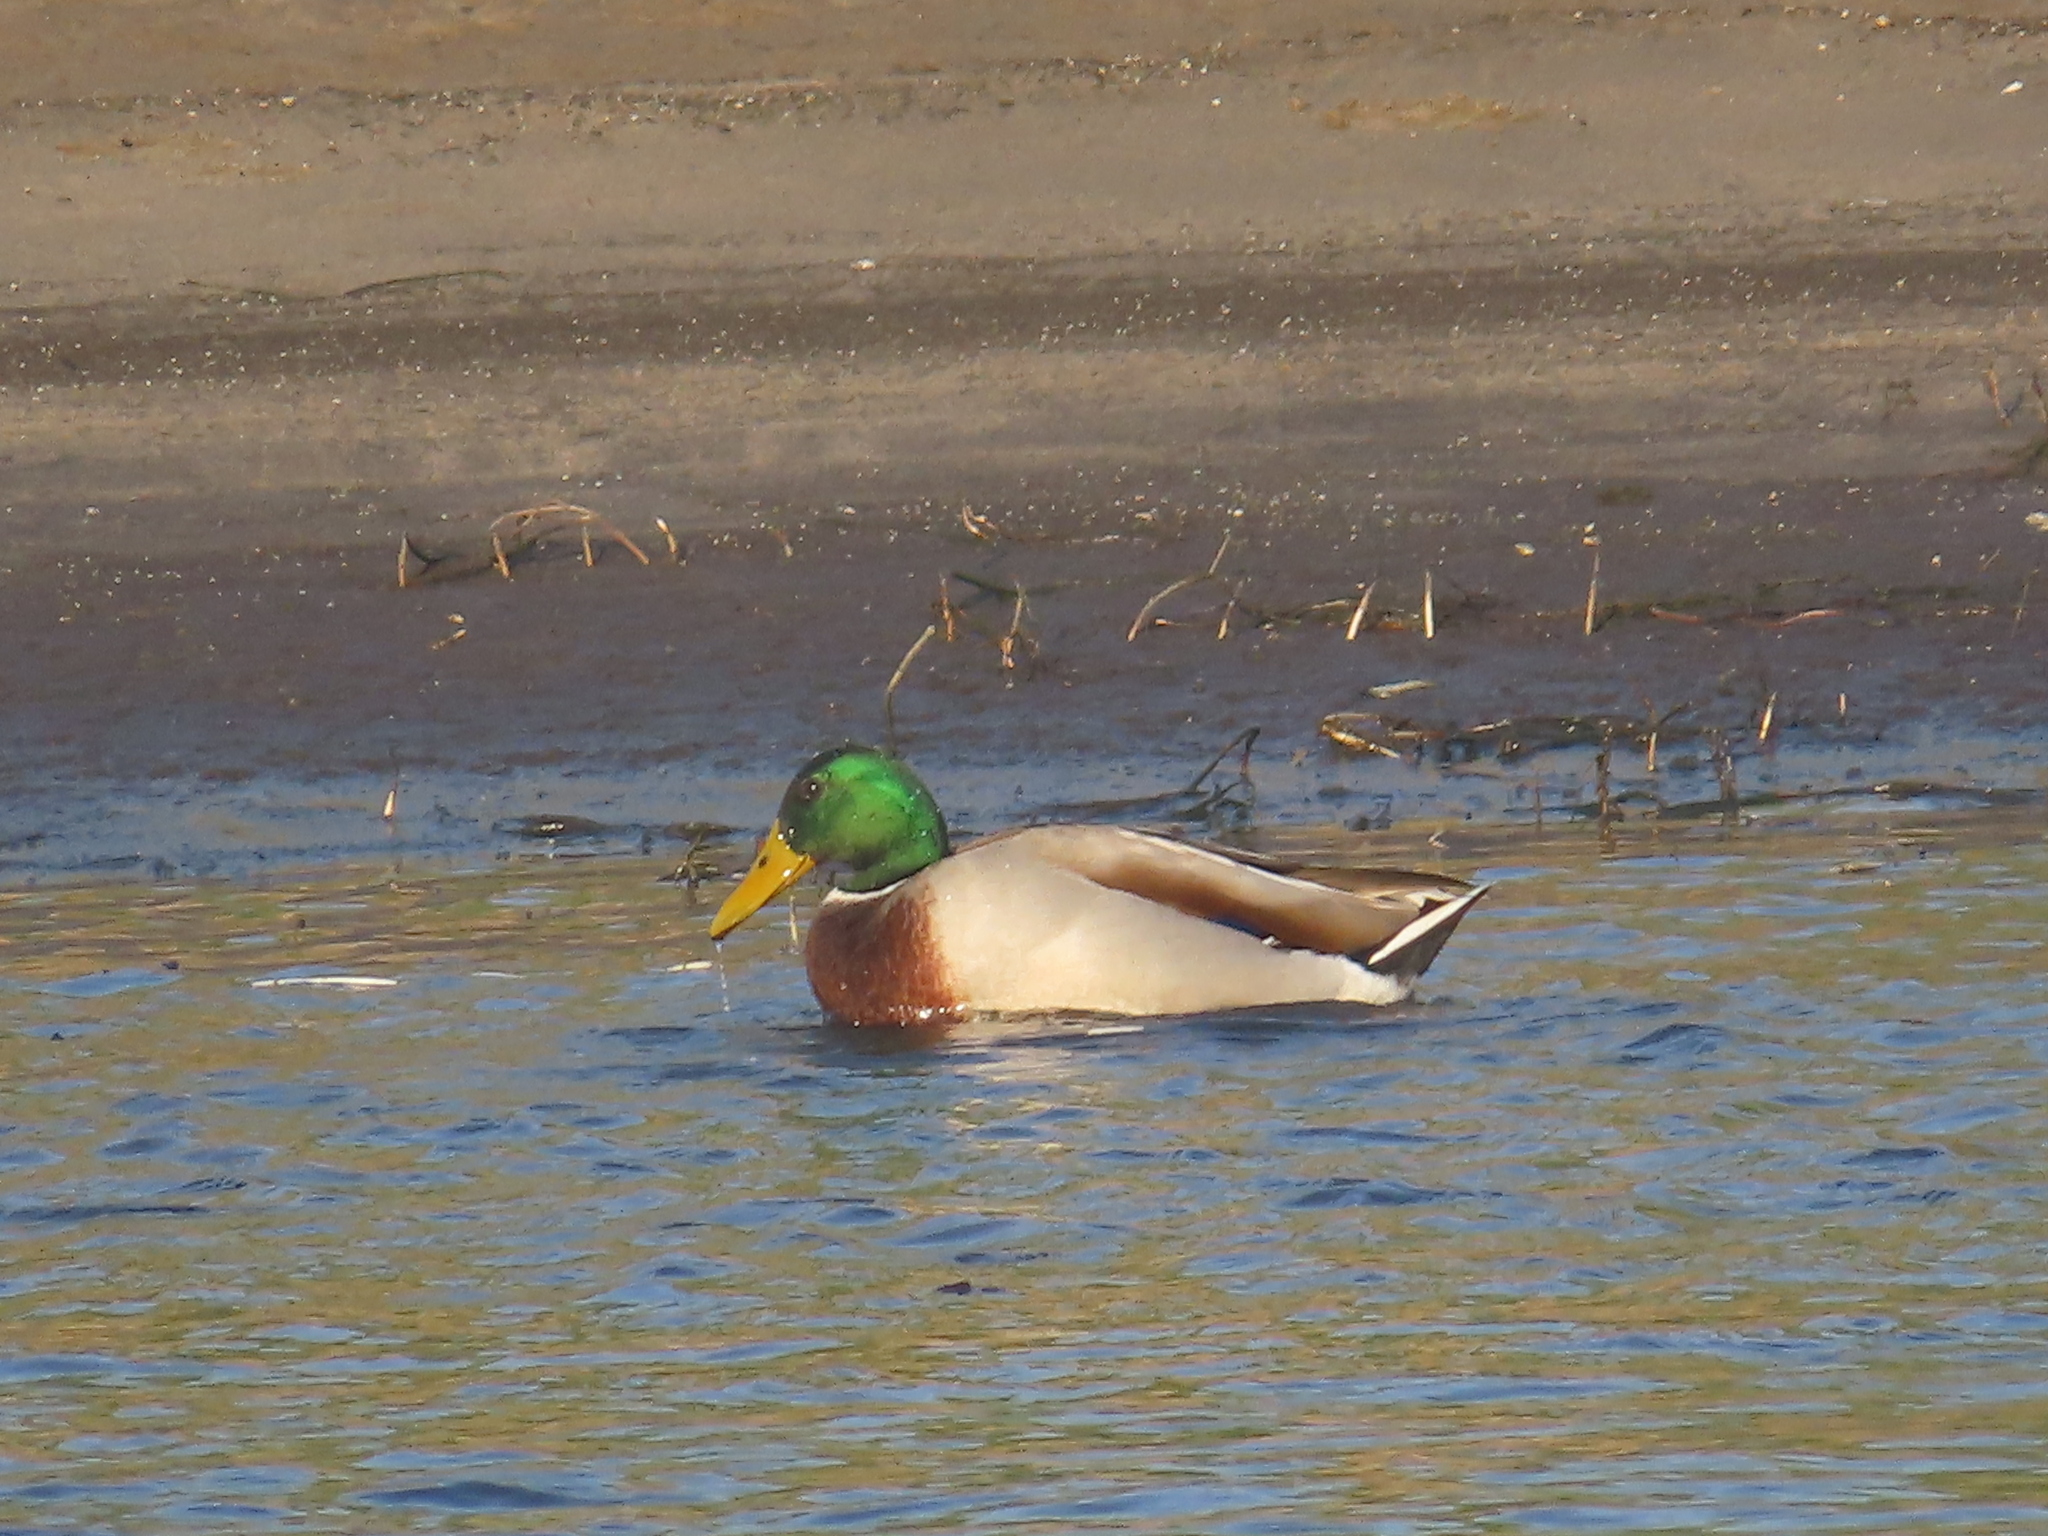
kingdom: Animalia
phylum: Chordata
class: Aves
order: Anseriformes
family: Anatidae
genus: Anas
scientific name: Anas platyrhynchos
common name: Mallard
